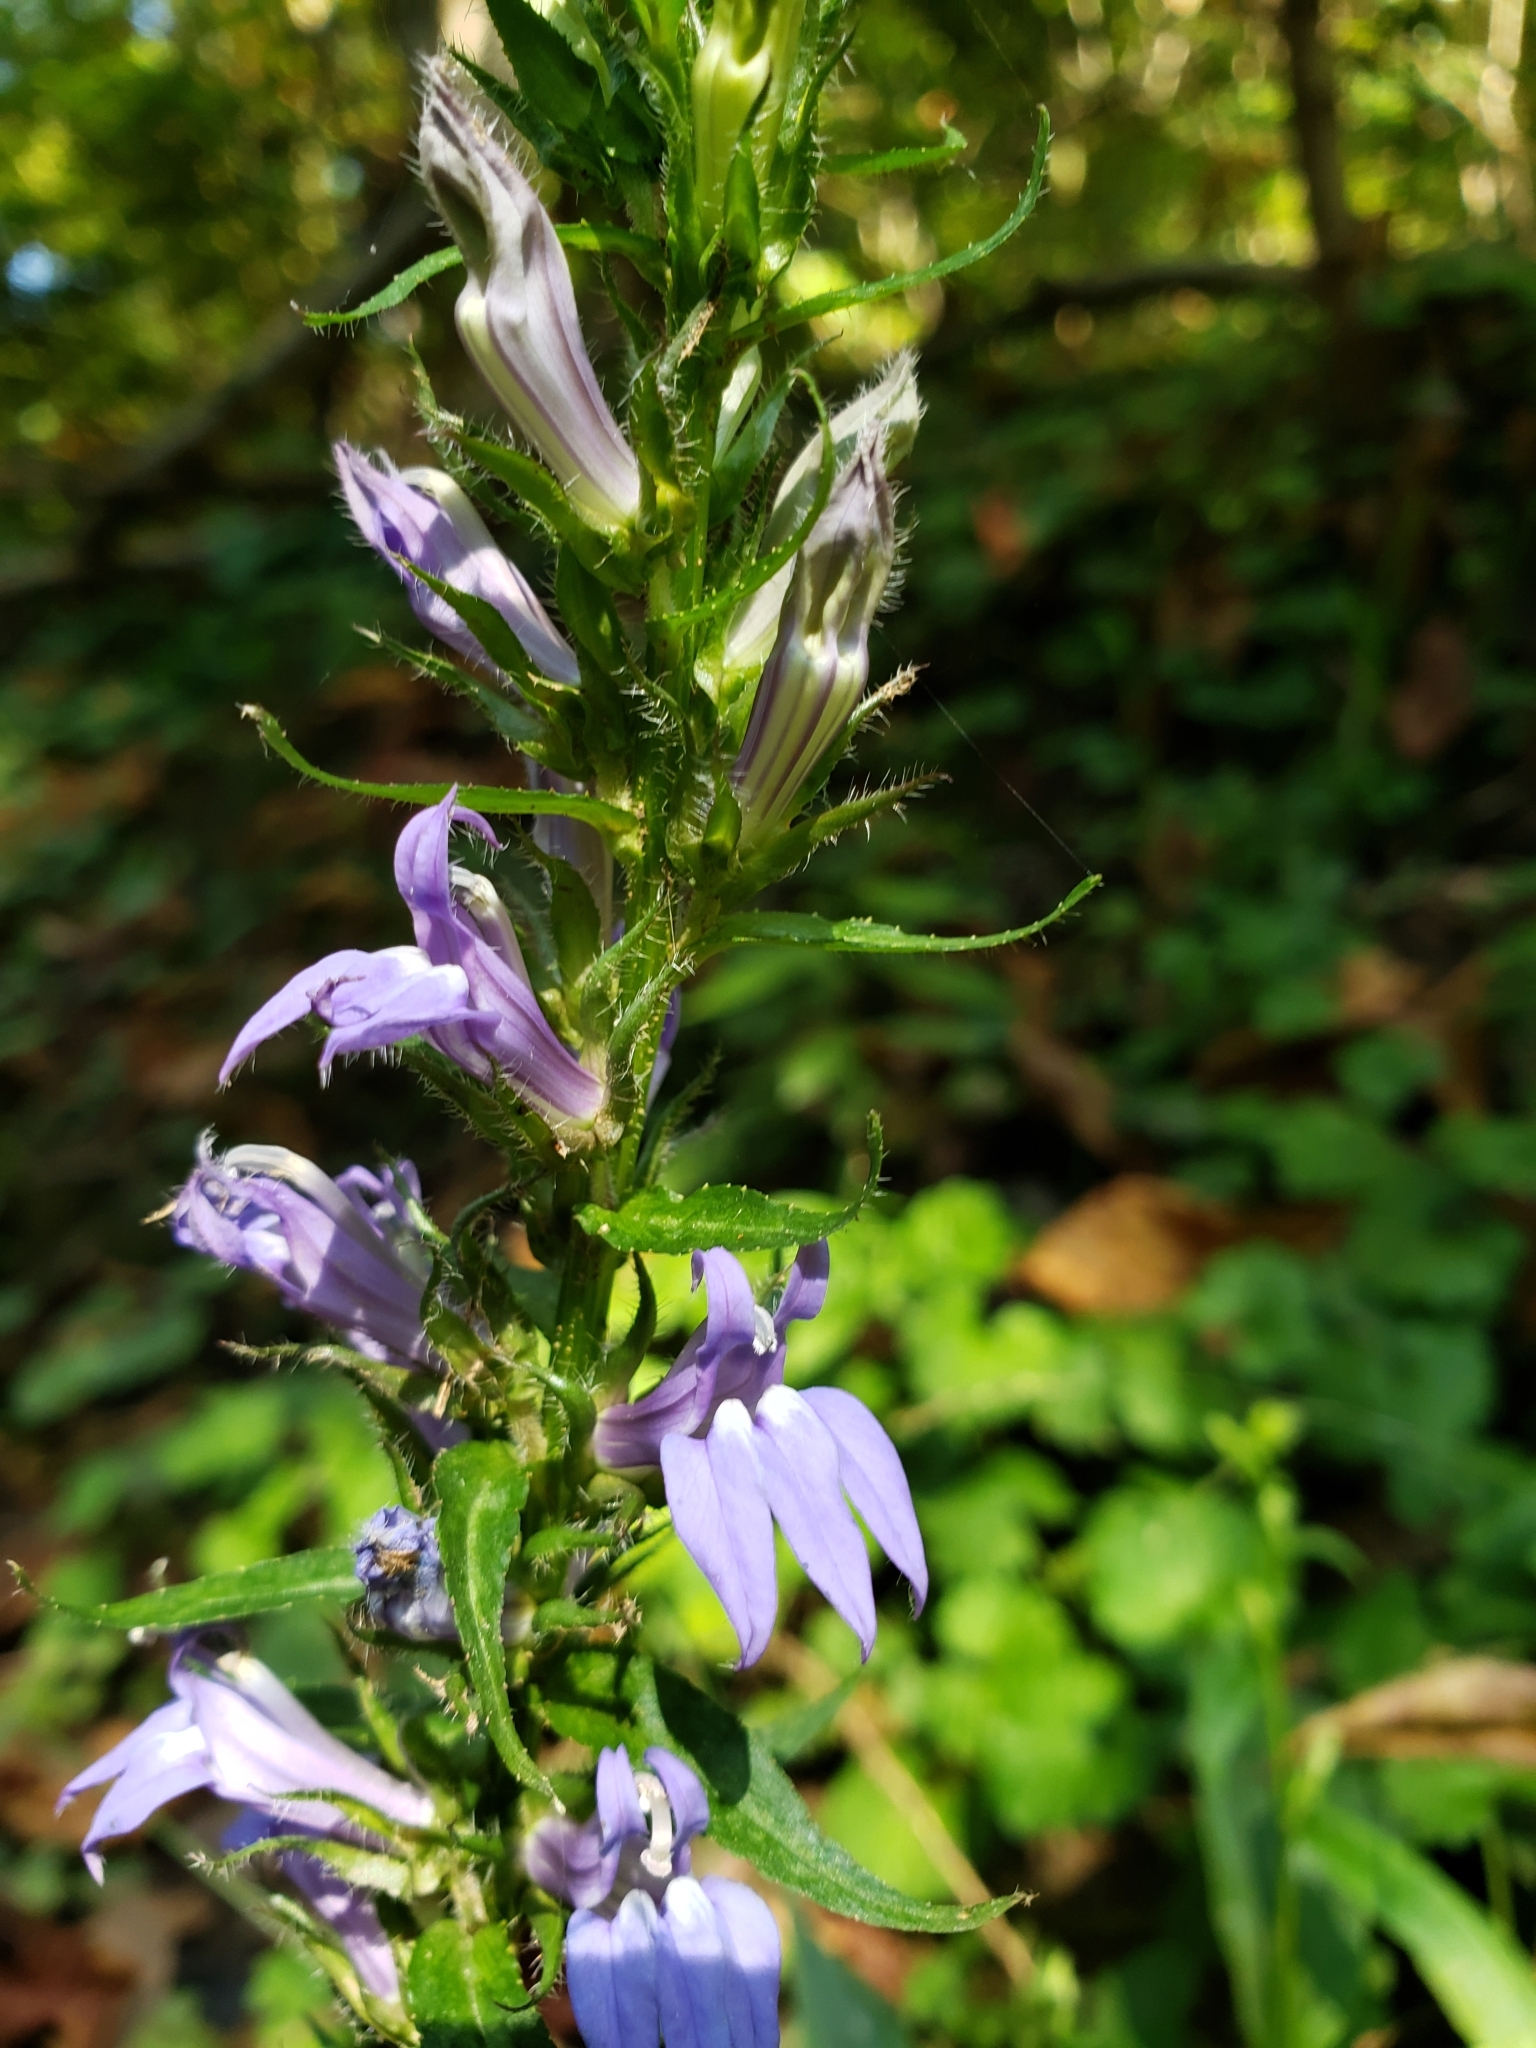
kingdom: Plantae
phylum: Tracheophyta
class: Magnoliopsida
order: Asterales
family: Campanulaceae
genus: Lobelia
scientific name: Lobelia siphilitica
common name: Great lobelia
